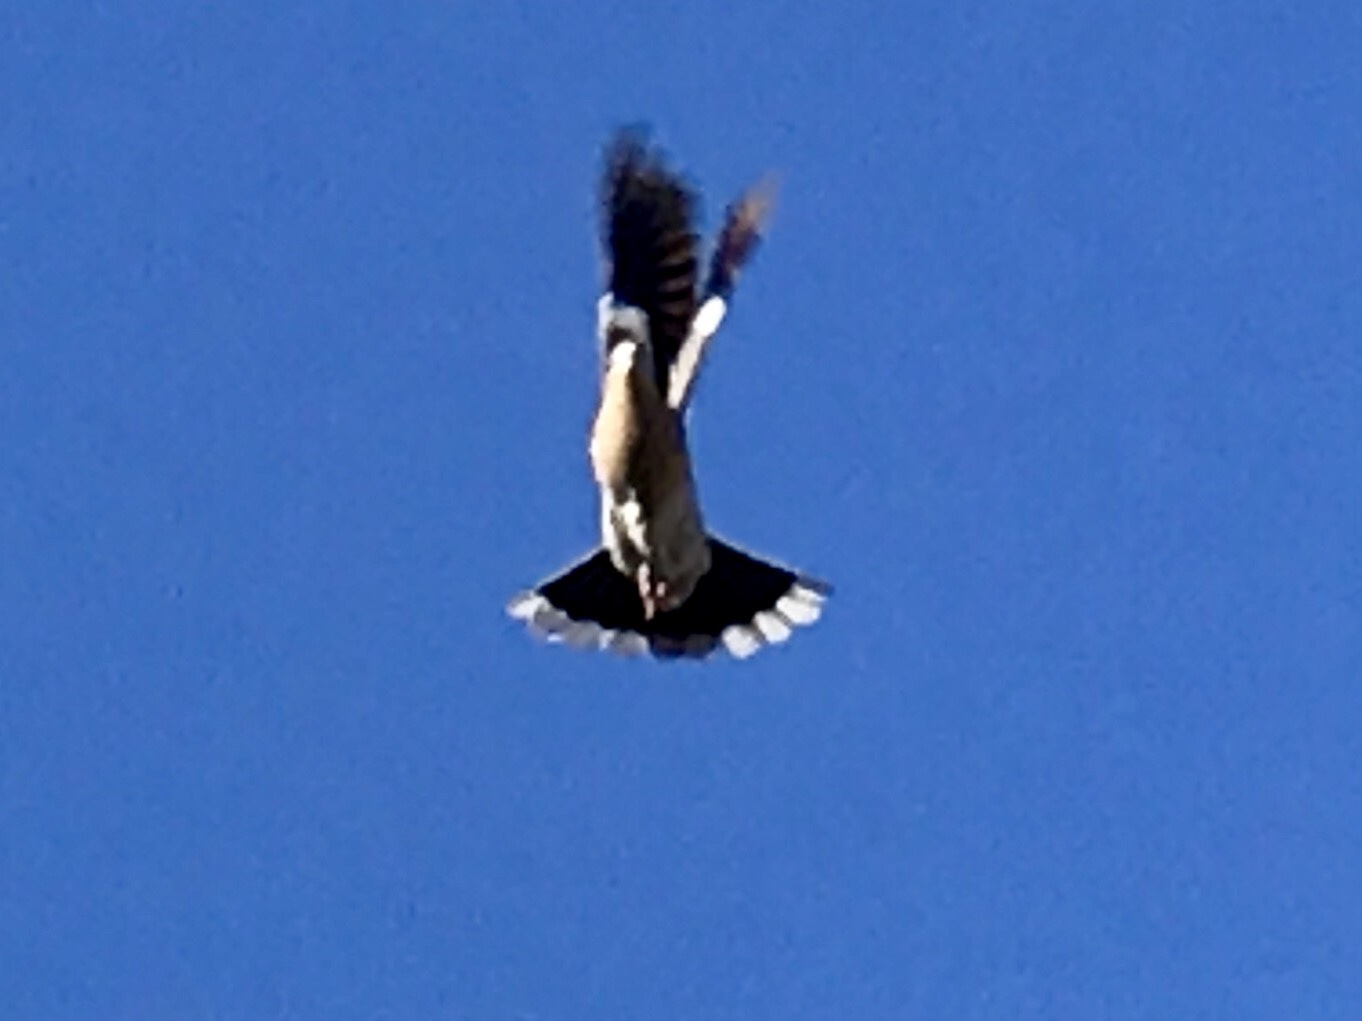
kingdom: Animalia
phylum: Chordata
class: Aves
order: Columbiformes
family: Columbidae
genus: Zenaida
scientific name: Zenaida asiatica
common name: White-winged dove
